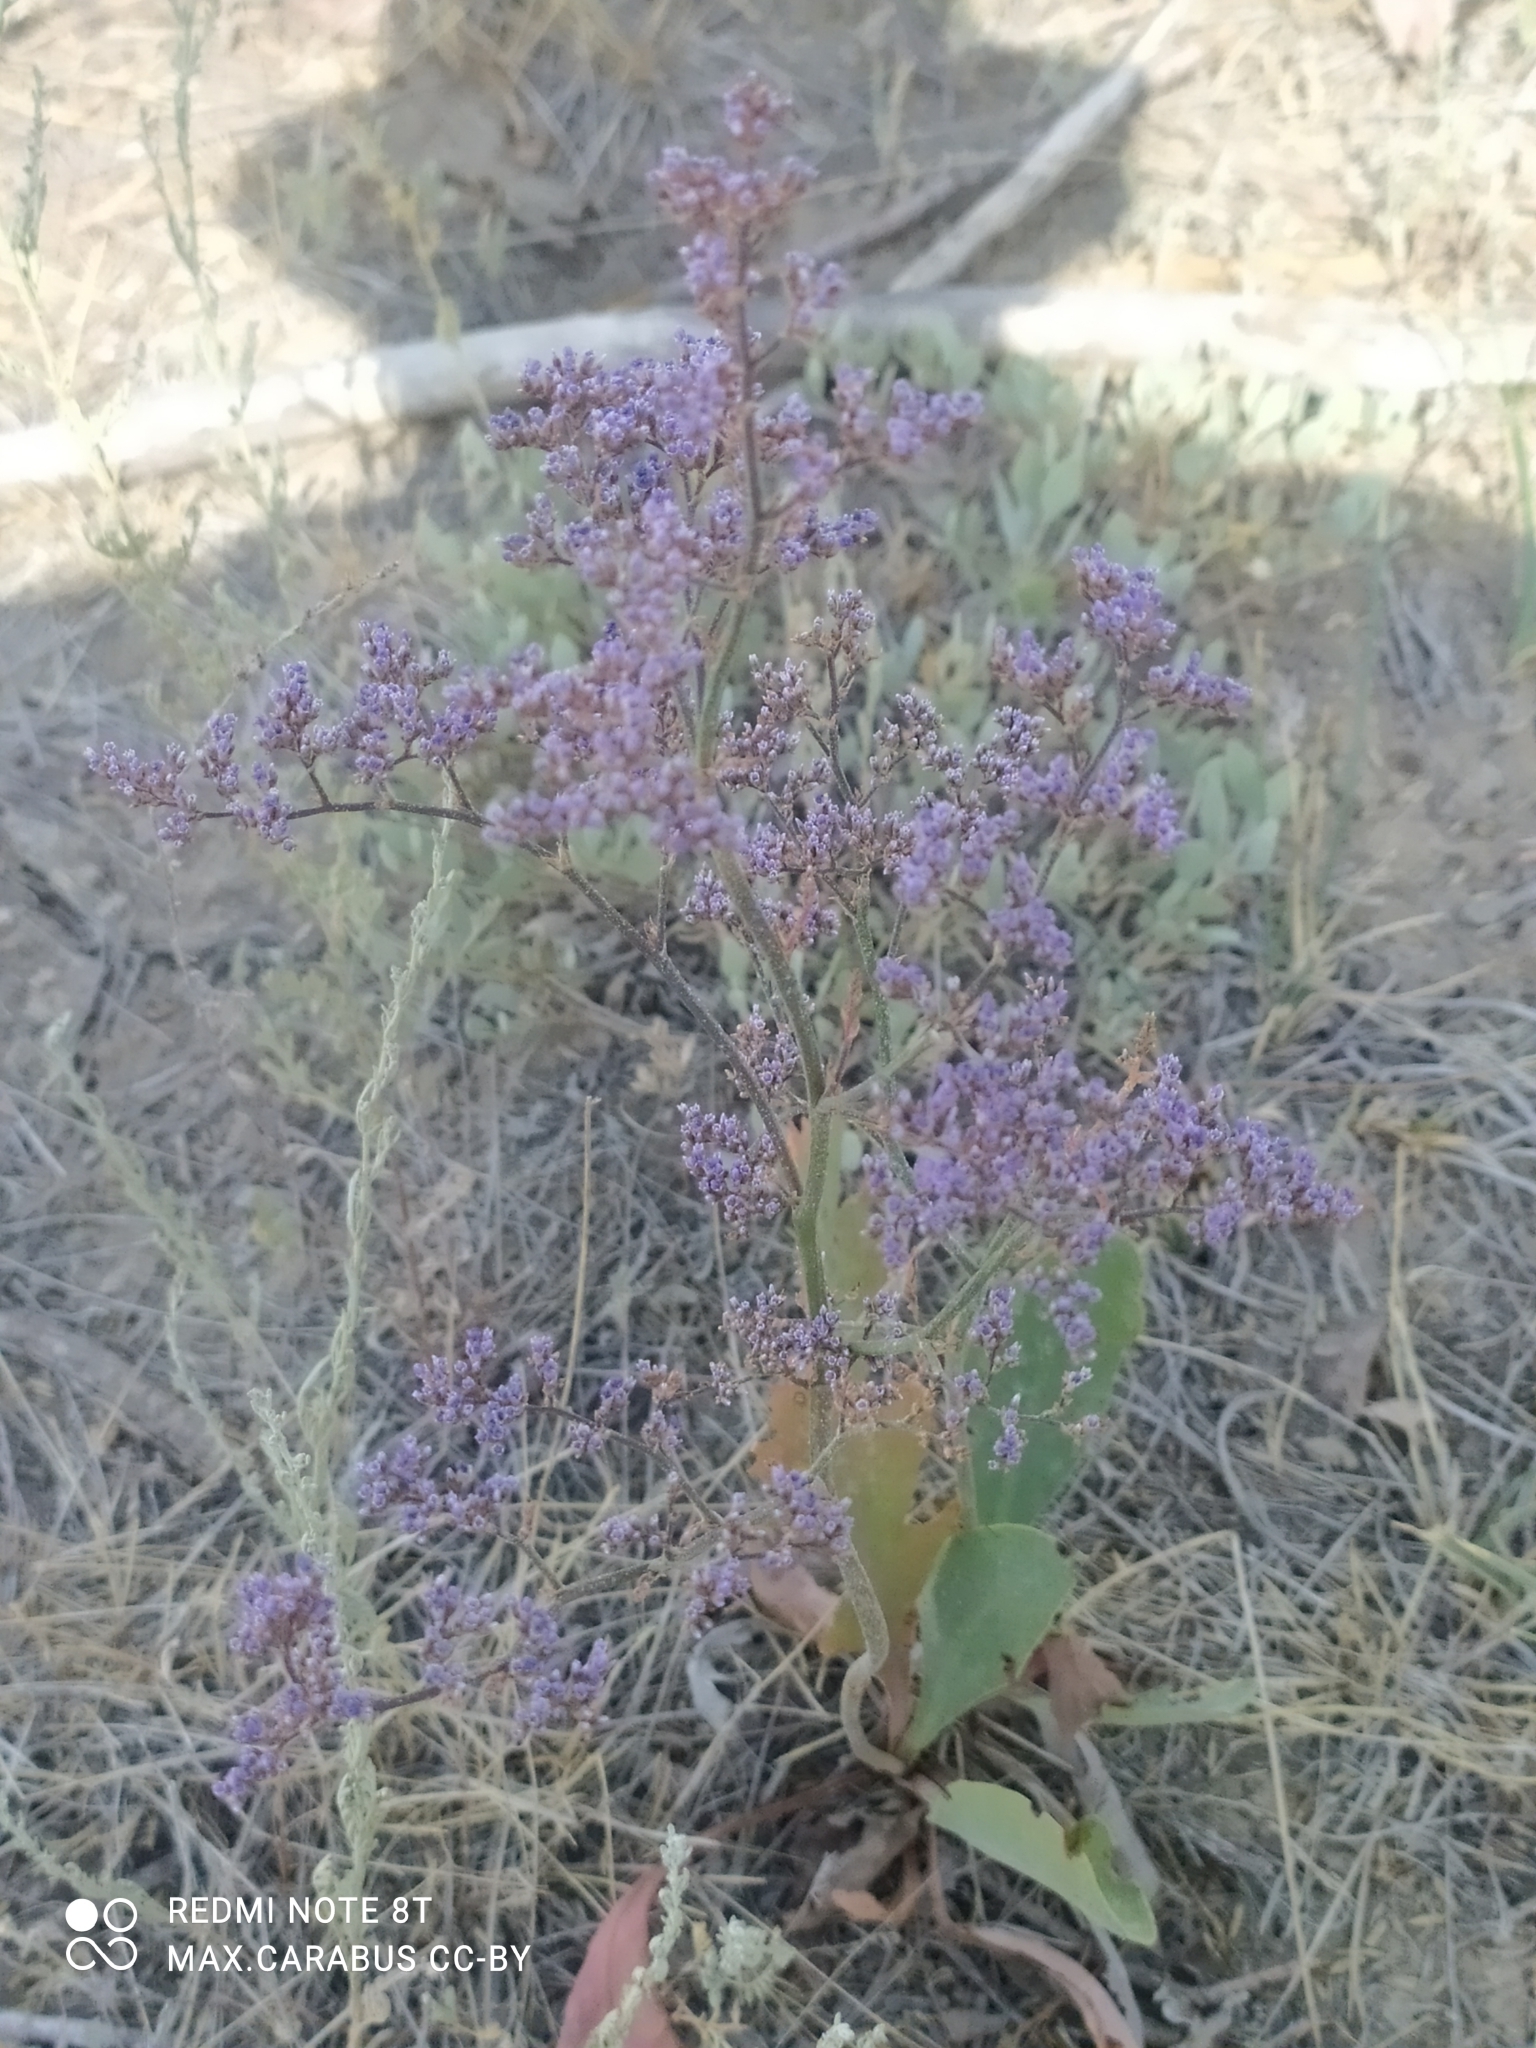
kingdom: Plantae
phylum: Tracheophyta
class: Magnoliopsida
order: Caryophyllales
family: Plumbaginaceae
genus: Limonium
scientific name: Limonium gmelini
